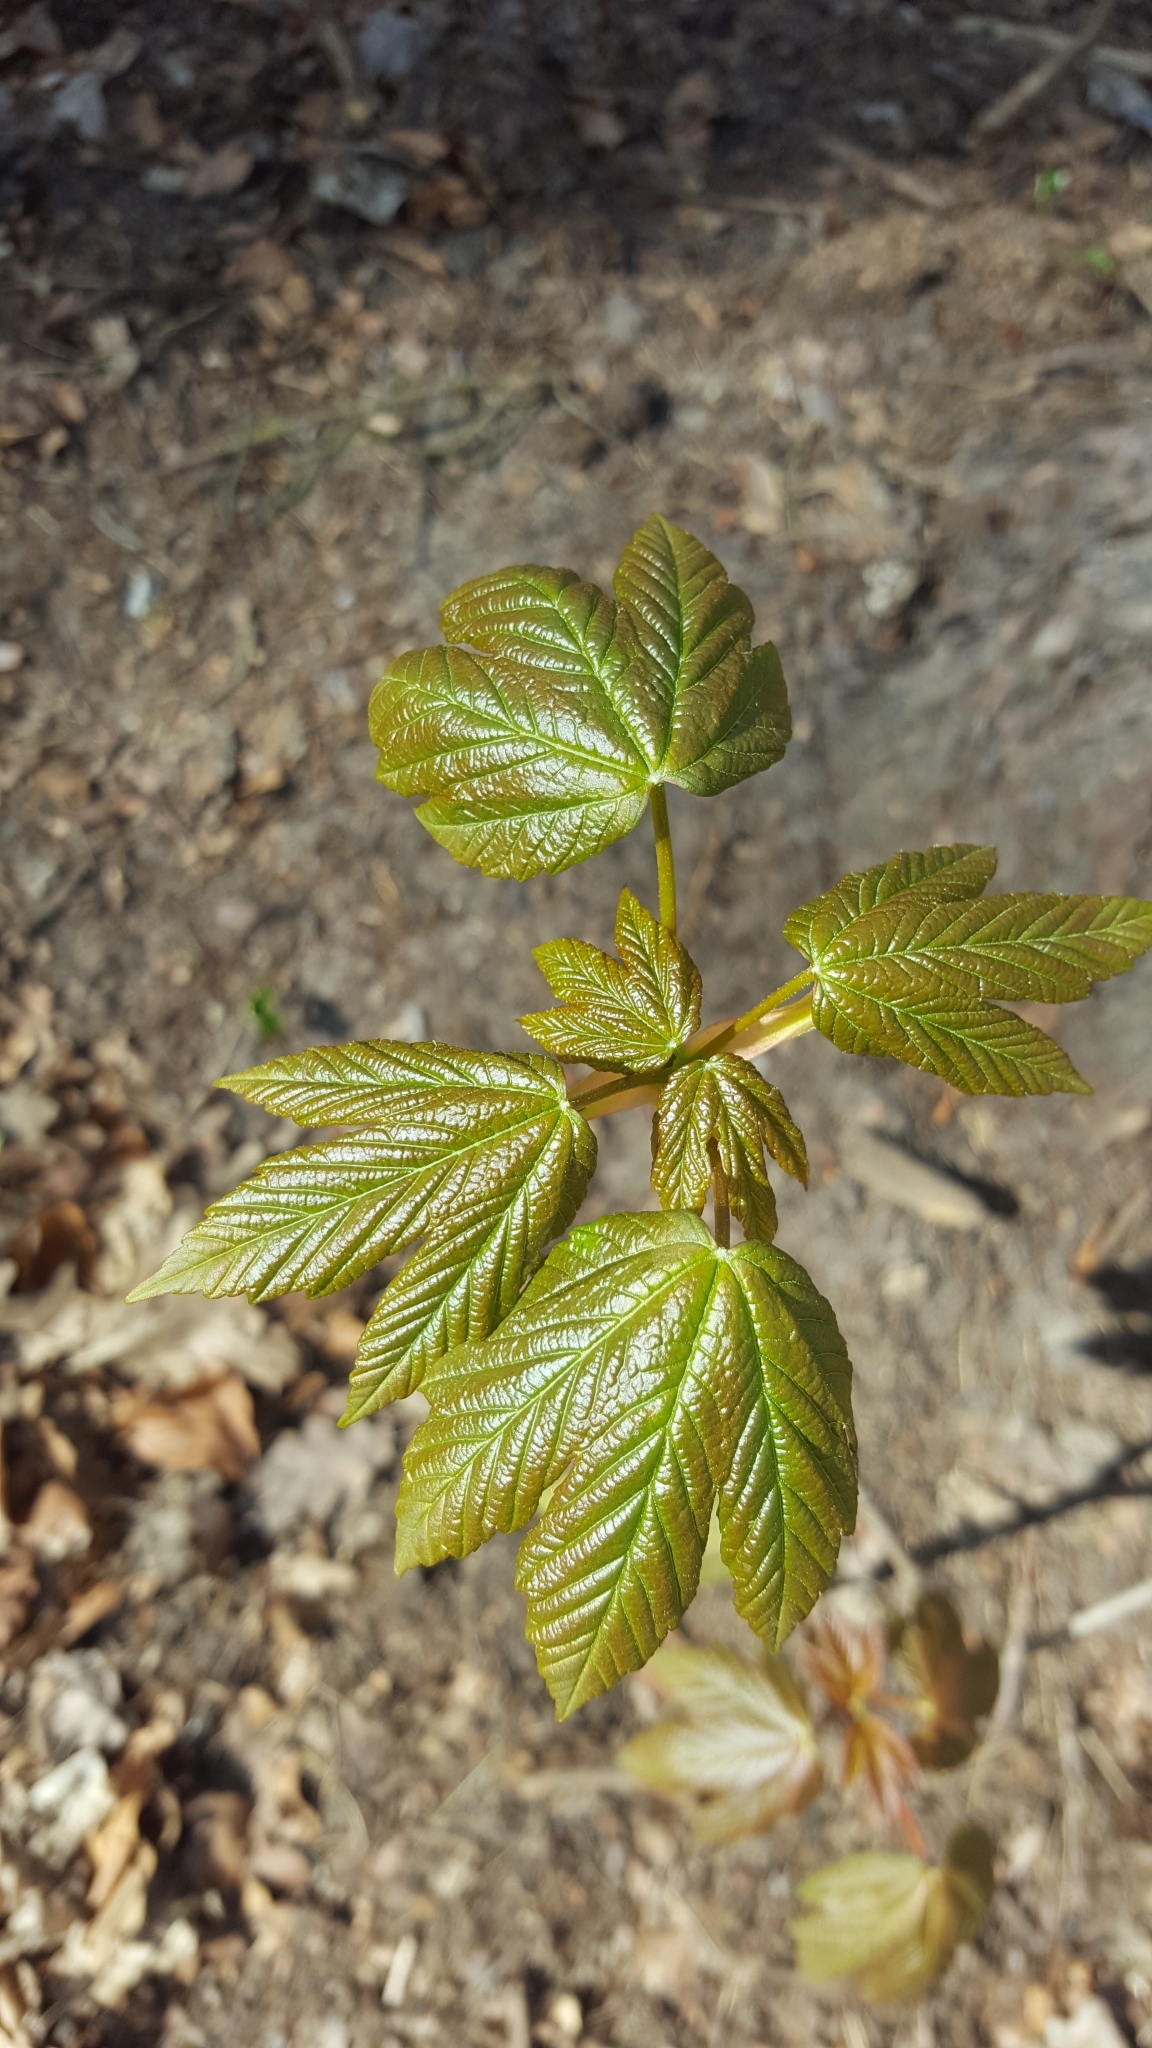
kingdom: Plantae
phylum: Tracheophyta
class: Magnoliopsida
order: Sapindales
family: Sapindaceae
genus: Acer
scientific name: Acer pseudoplatanus
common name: Sycamore
